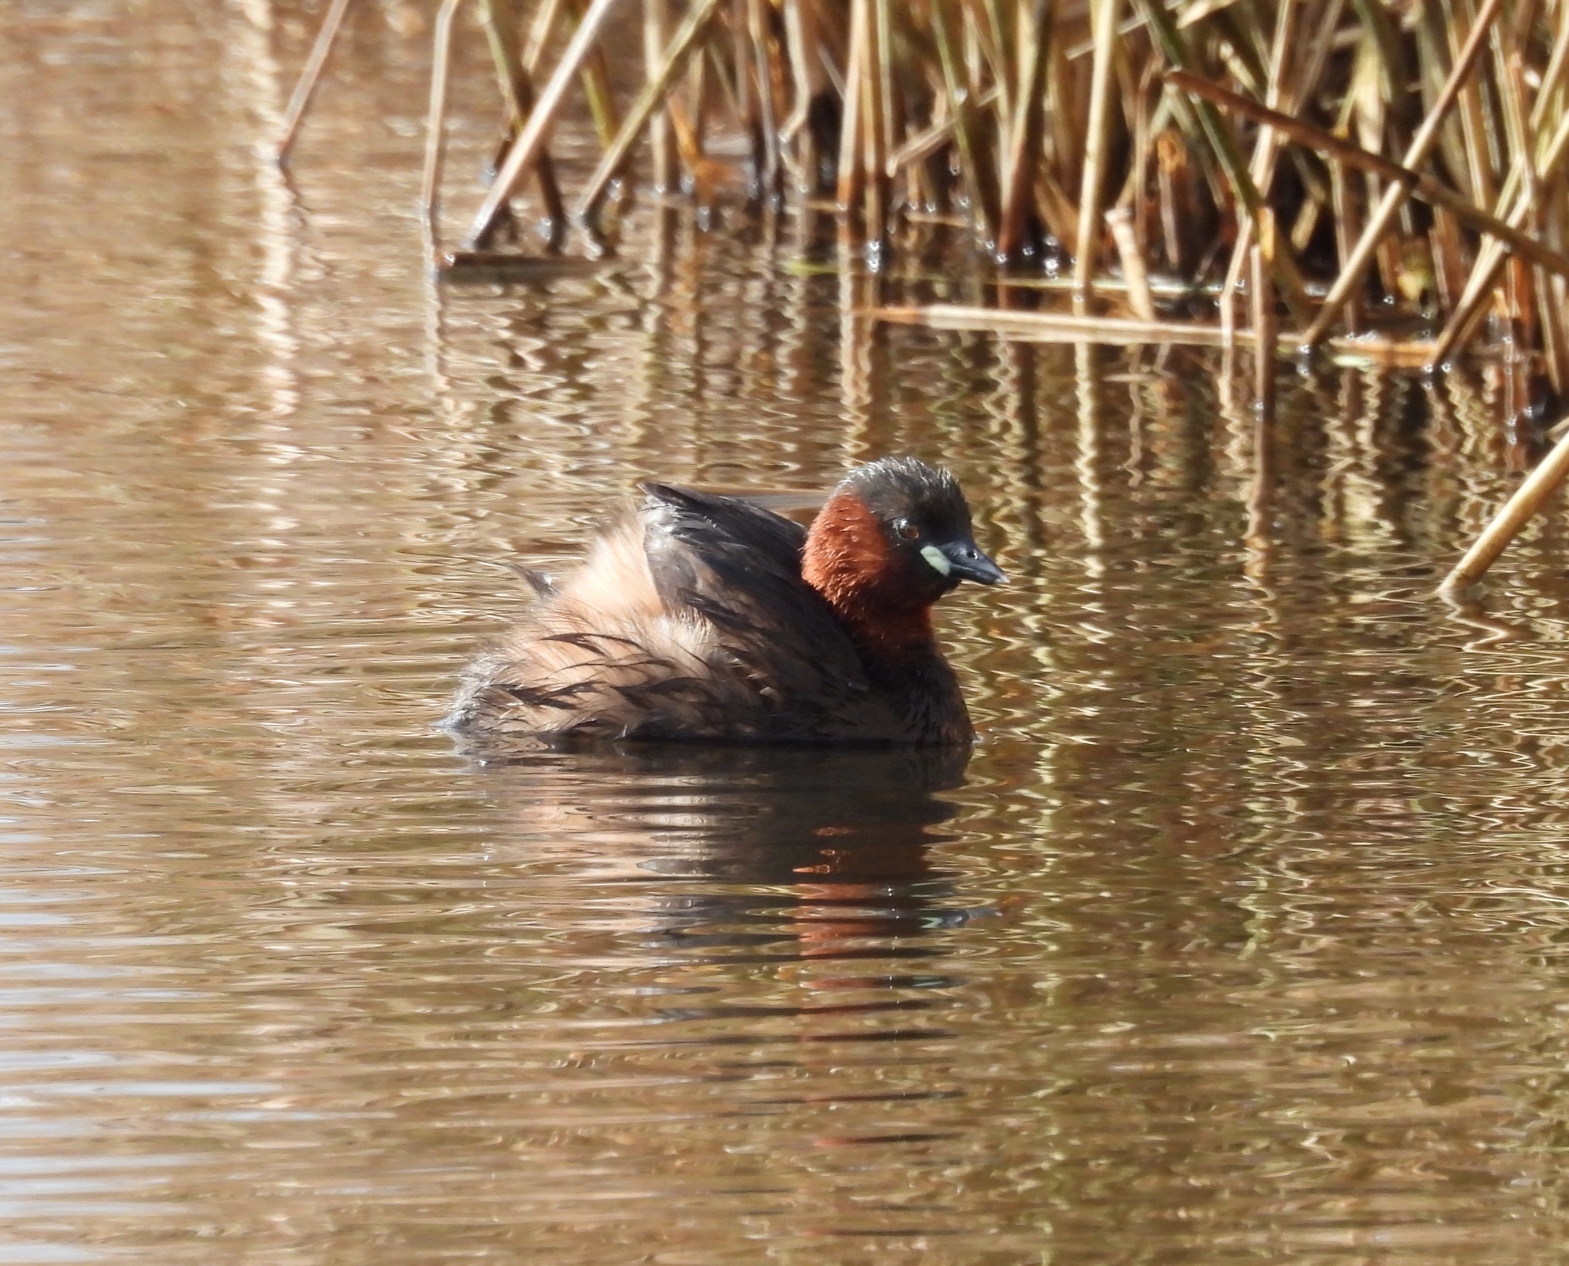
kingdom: Animalia
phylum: Chordata
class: Aves
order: Podicipediformes
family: Podicipedidae
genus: Tachybaptus
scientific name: Tachybaptus ruficollis
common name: Little grebe
